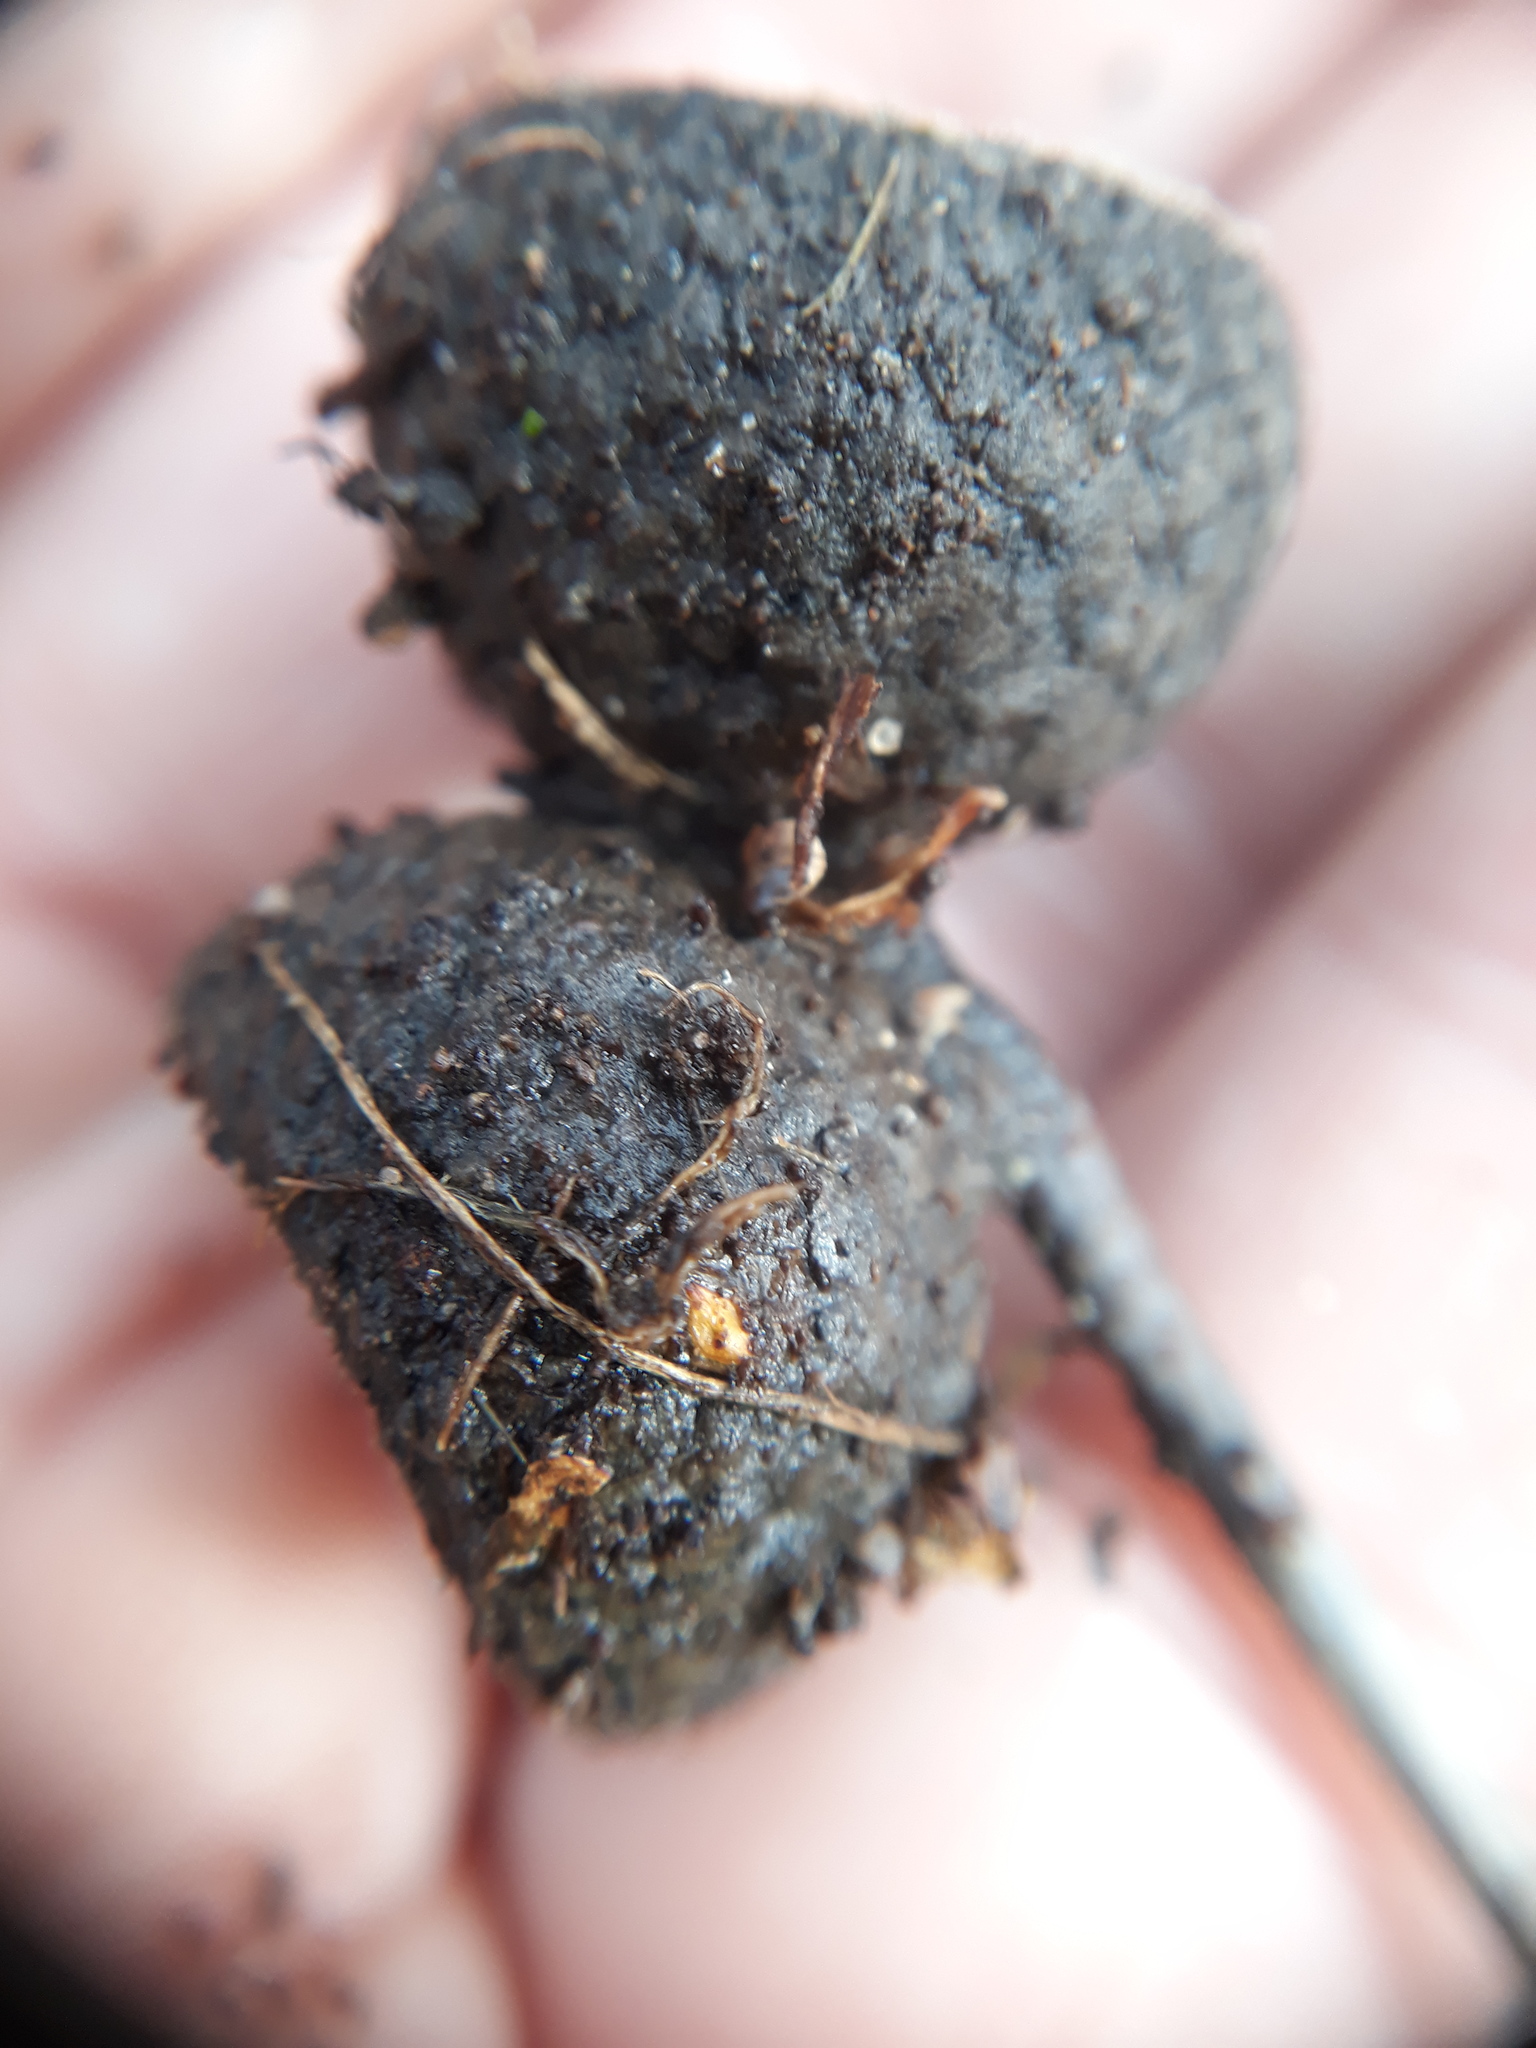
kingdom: Plantae
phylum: Tracheophyta
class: Magnoliopsida
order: Fagales
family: Fagaceae
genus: Quercus
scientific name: Quercus robur
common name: Pedunculate oak
